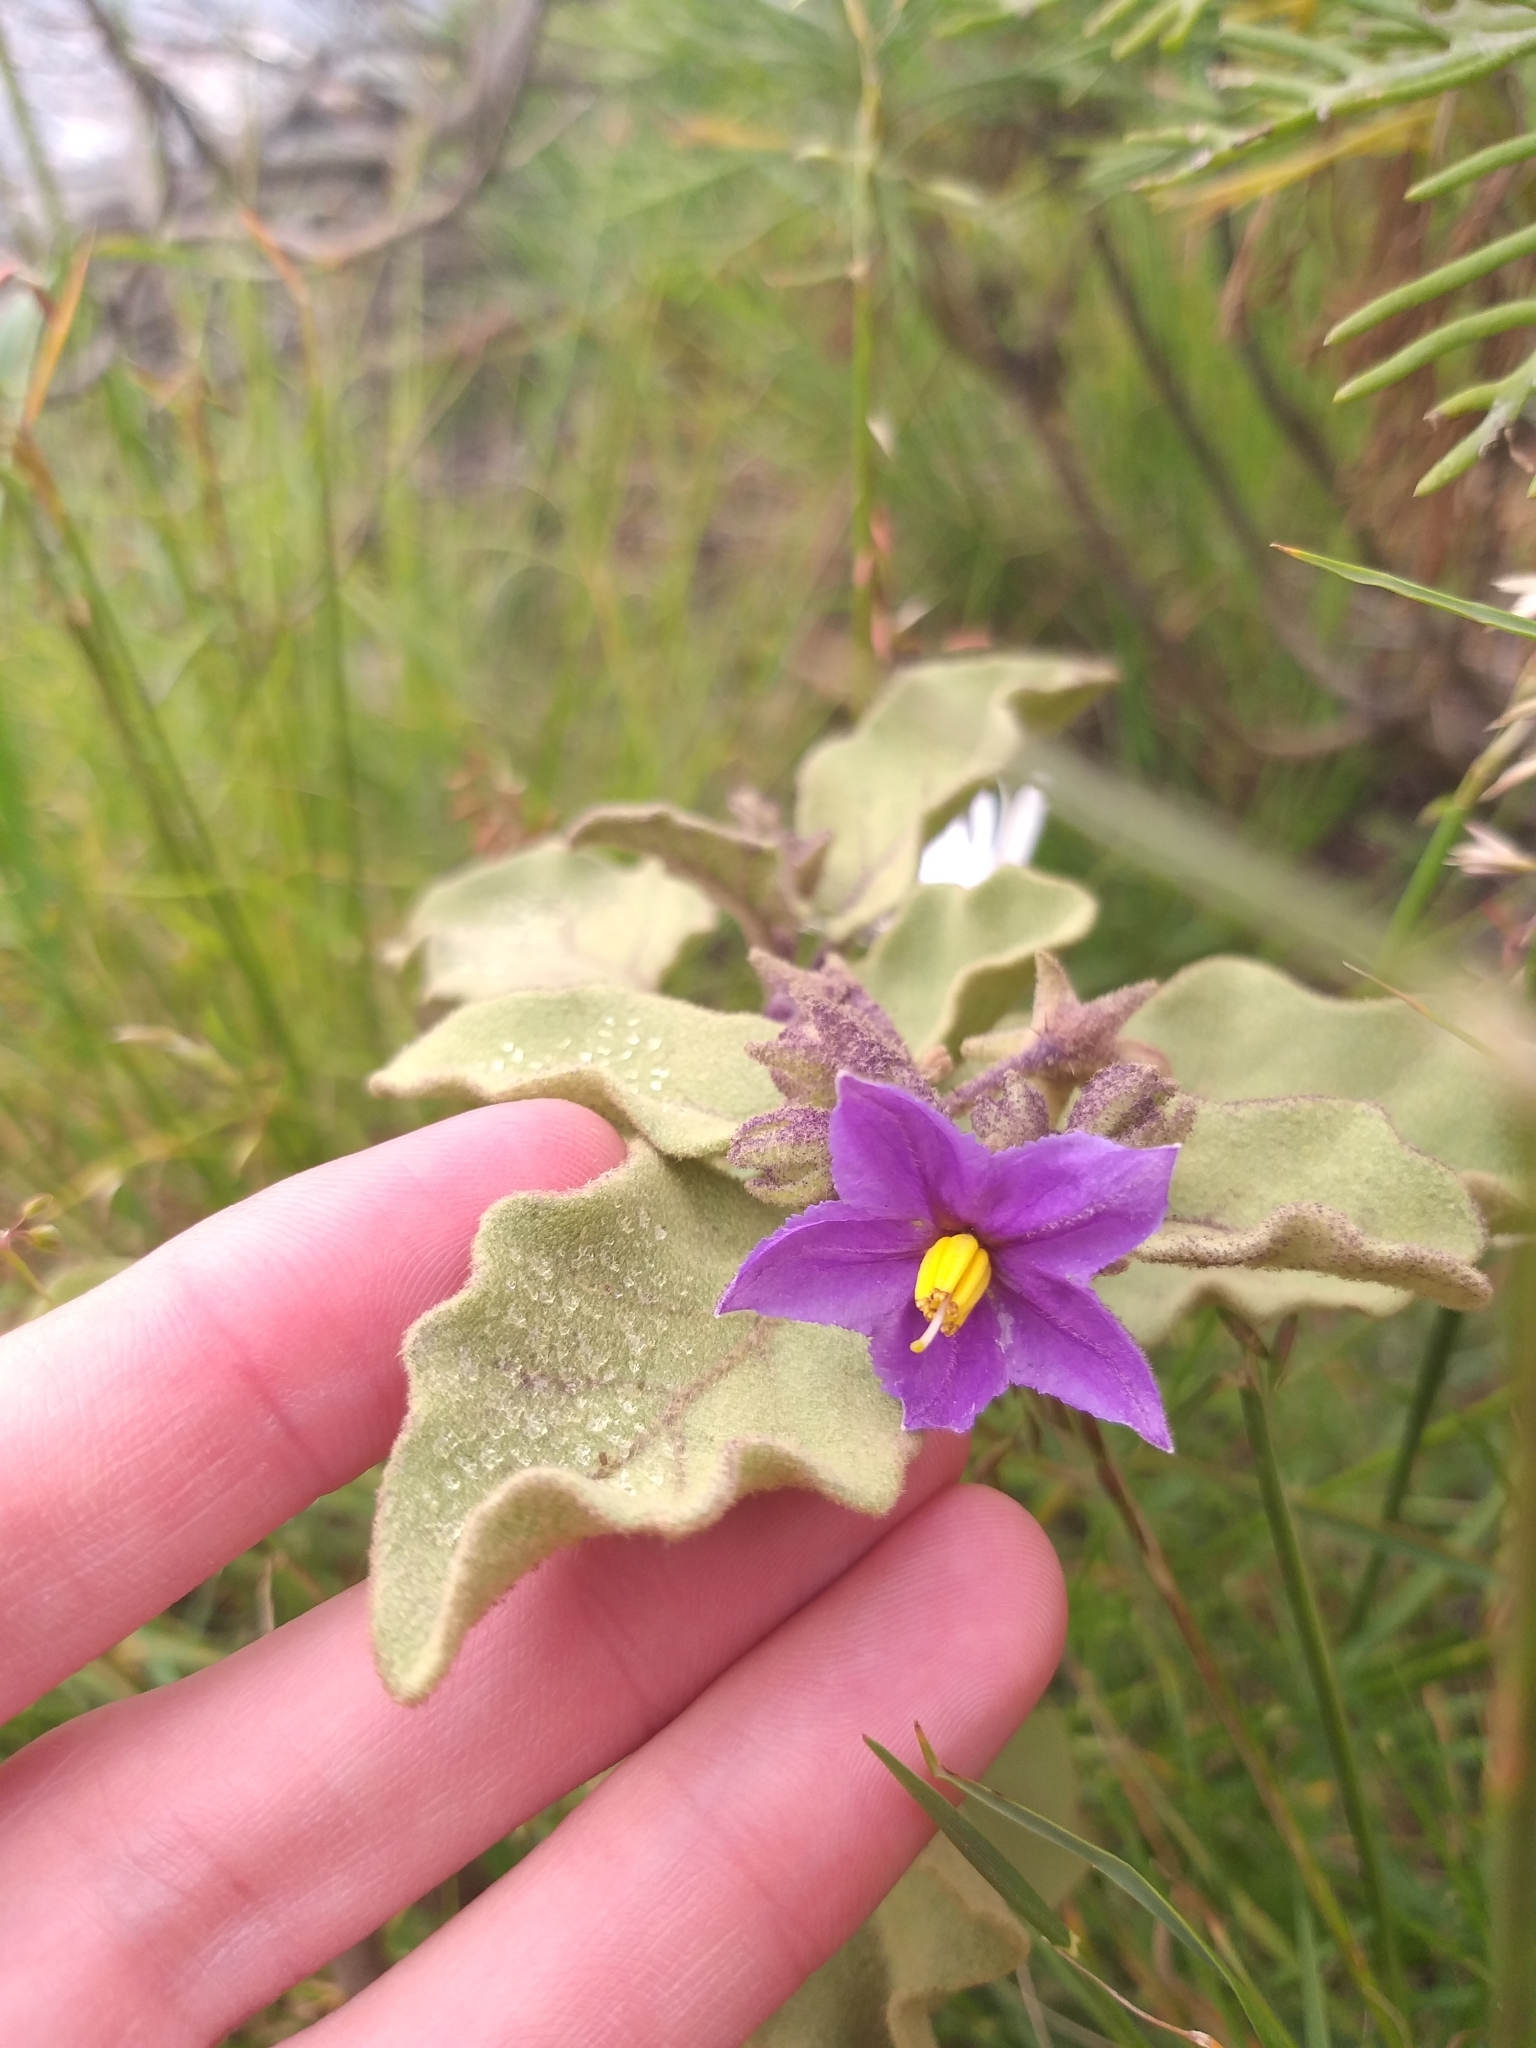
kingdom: Plantae
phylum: Tracheophyta
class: Magnoliopsida
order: Solanales
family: Solanaceae
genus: Solanum
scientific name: Solanum tomentosum
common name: Wild aubergine
